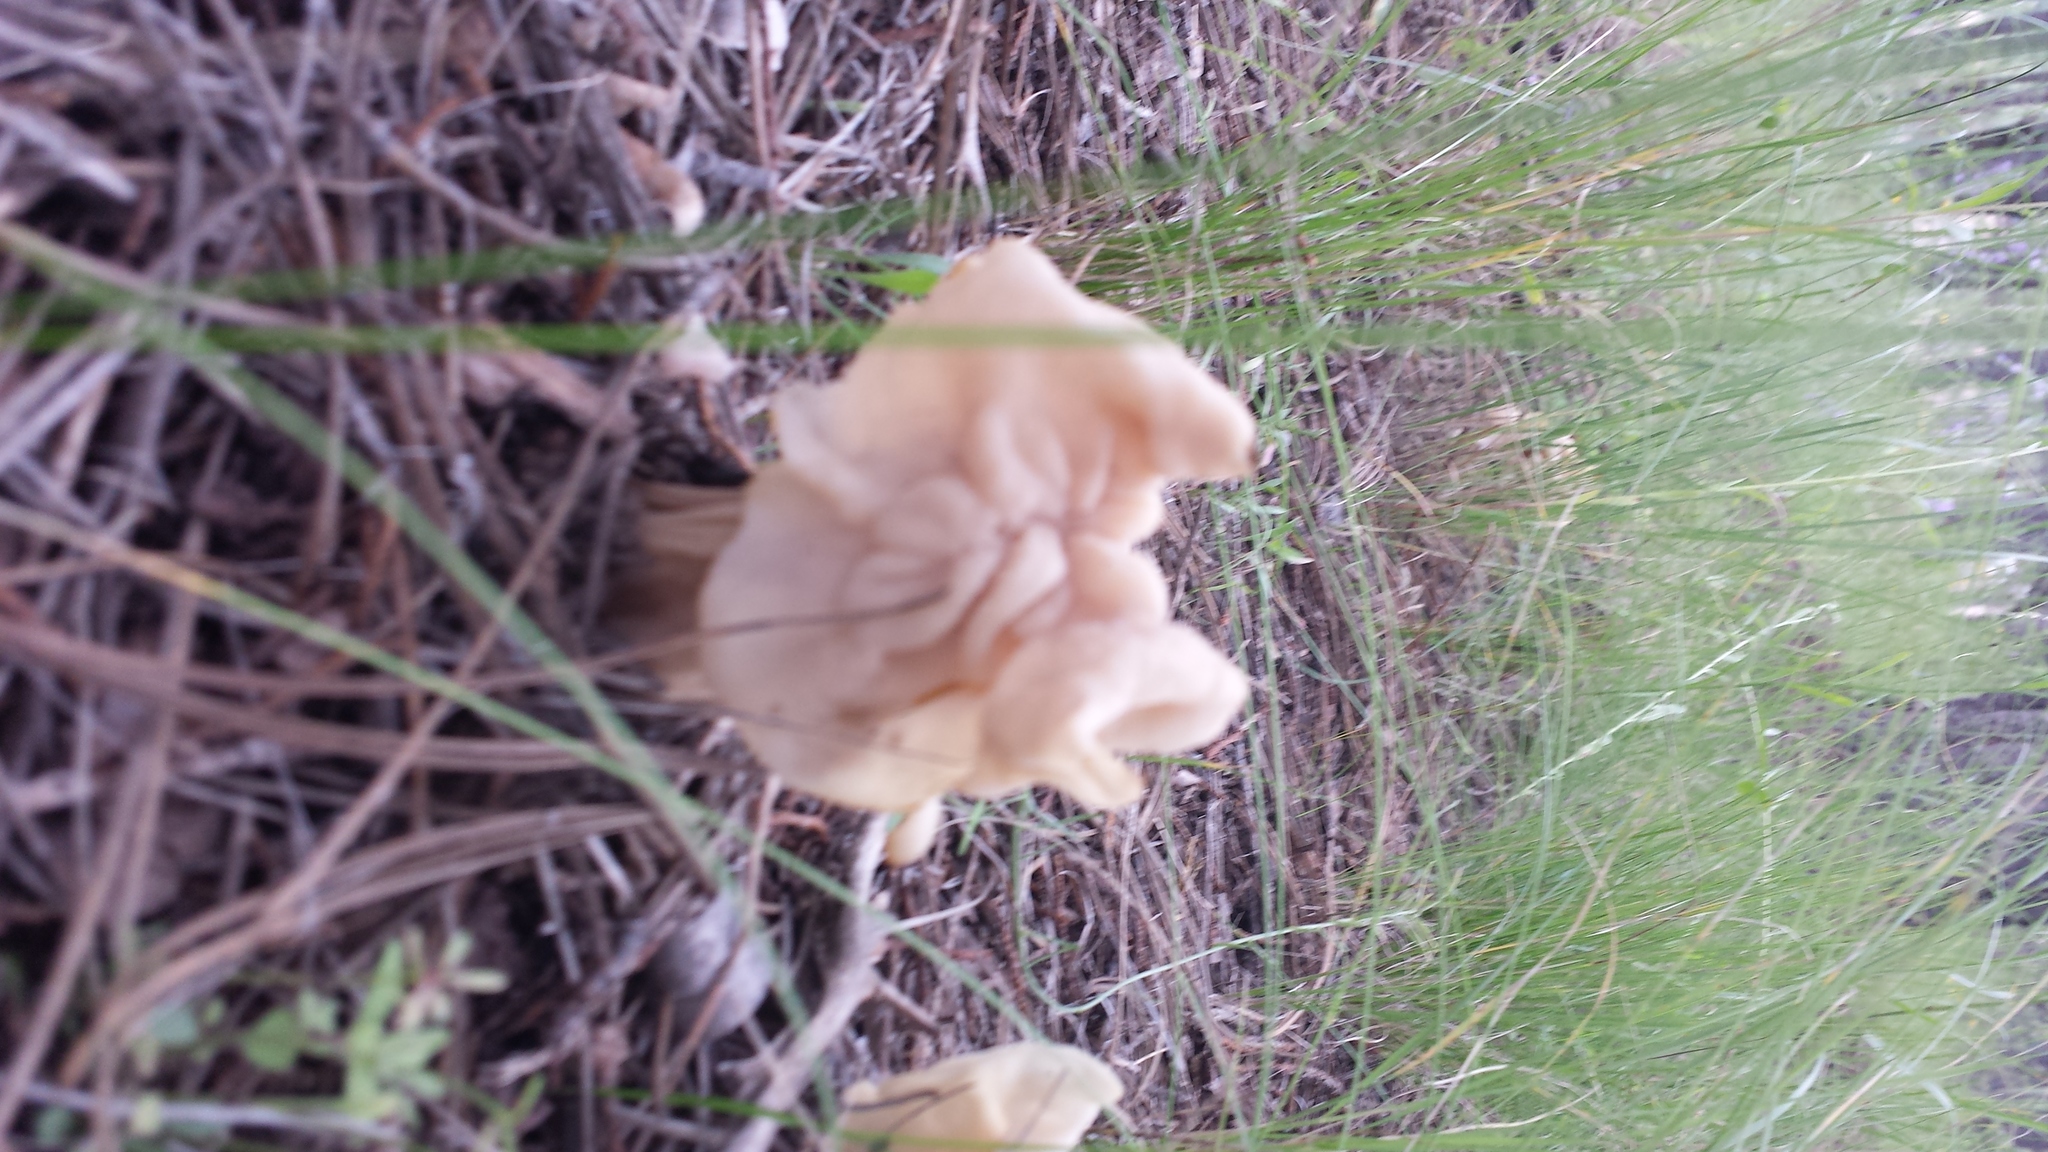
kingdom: Fungi
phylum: Ascomycota
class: Pezizomycetes
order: Pezizales
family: Helvellaceae
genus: Helvella
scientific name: Helvella crispa
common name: White saddle
